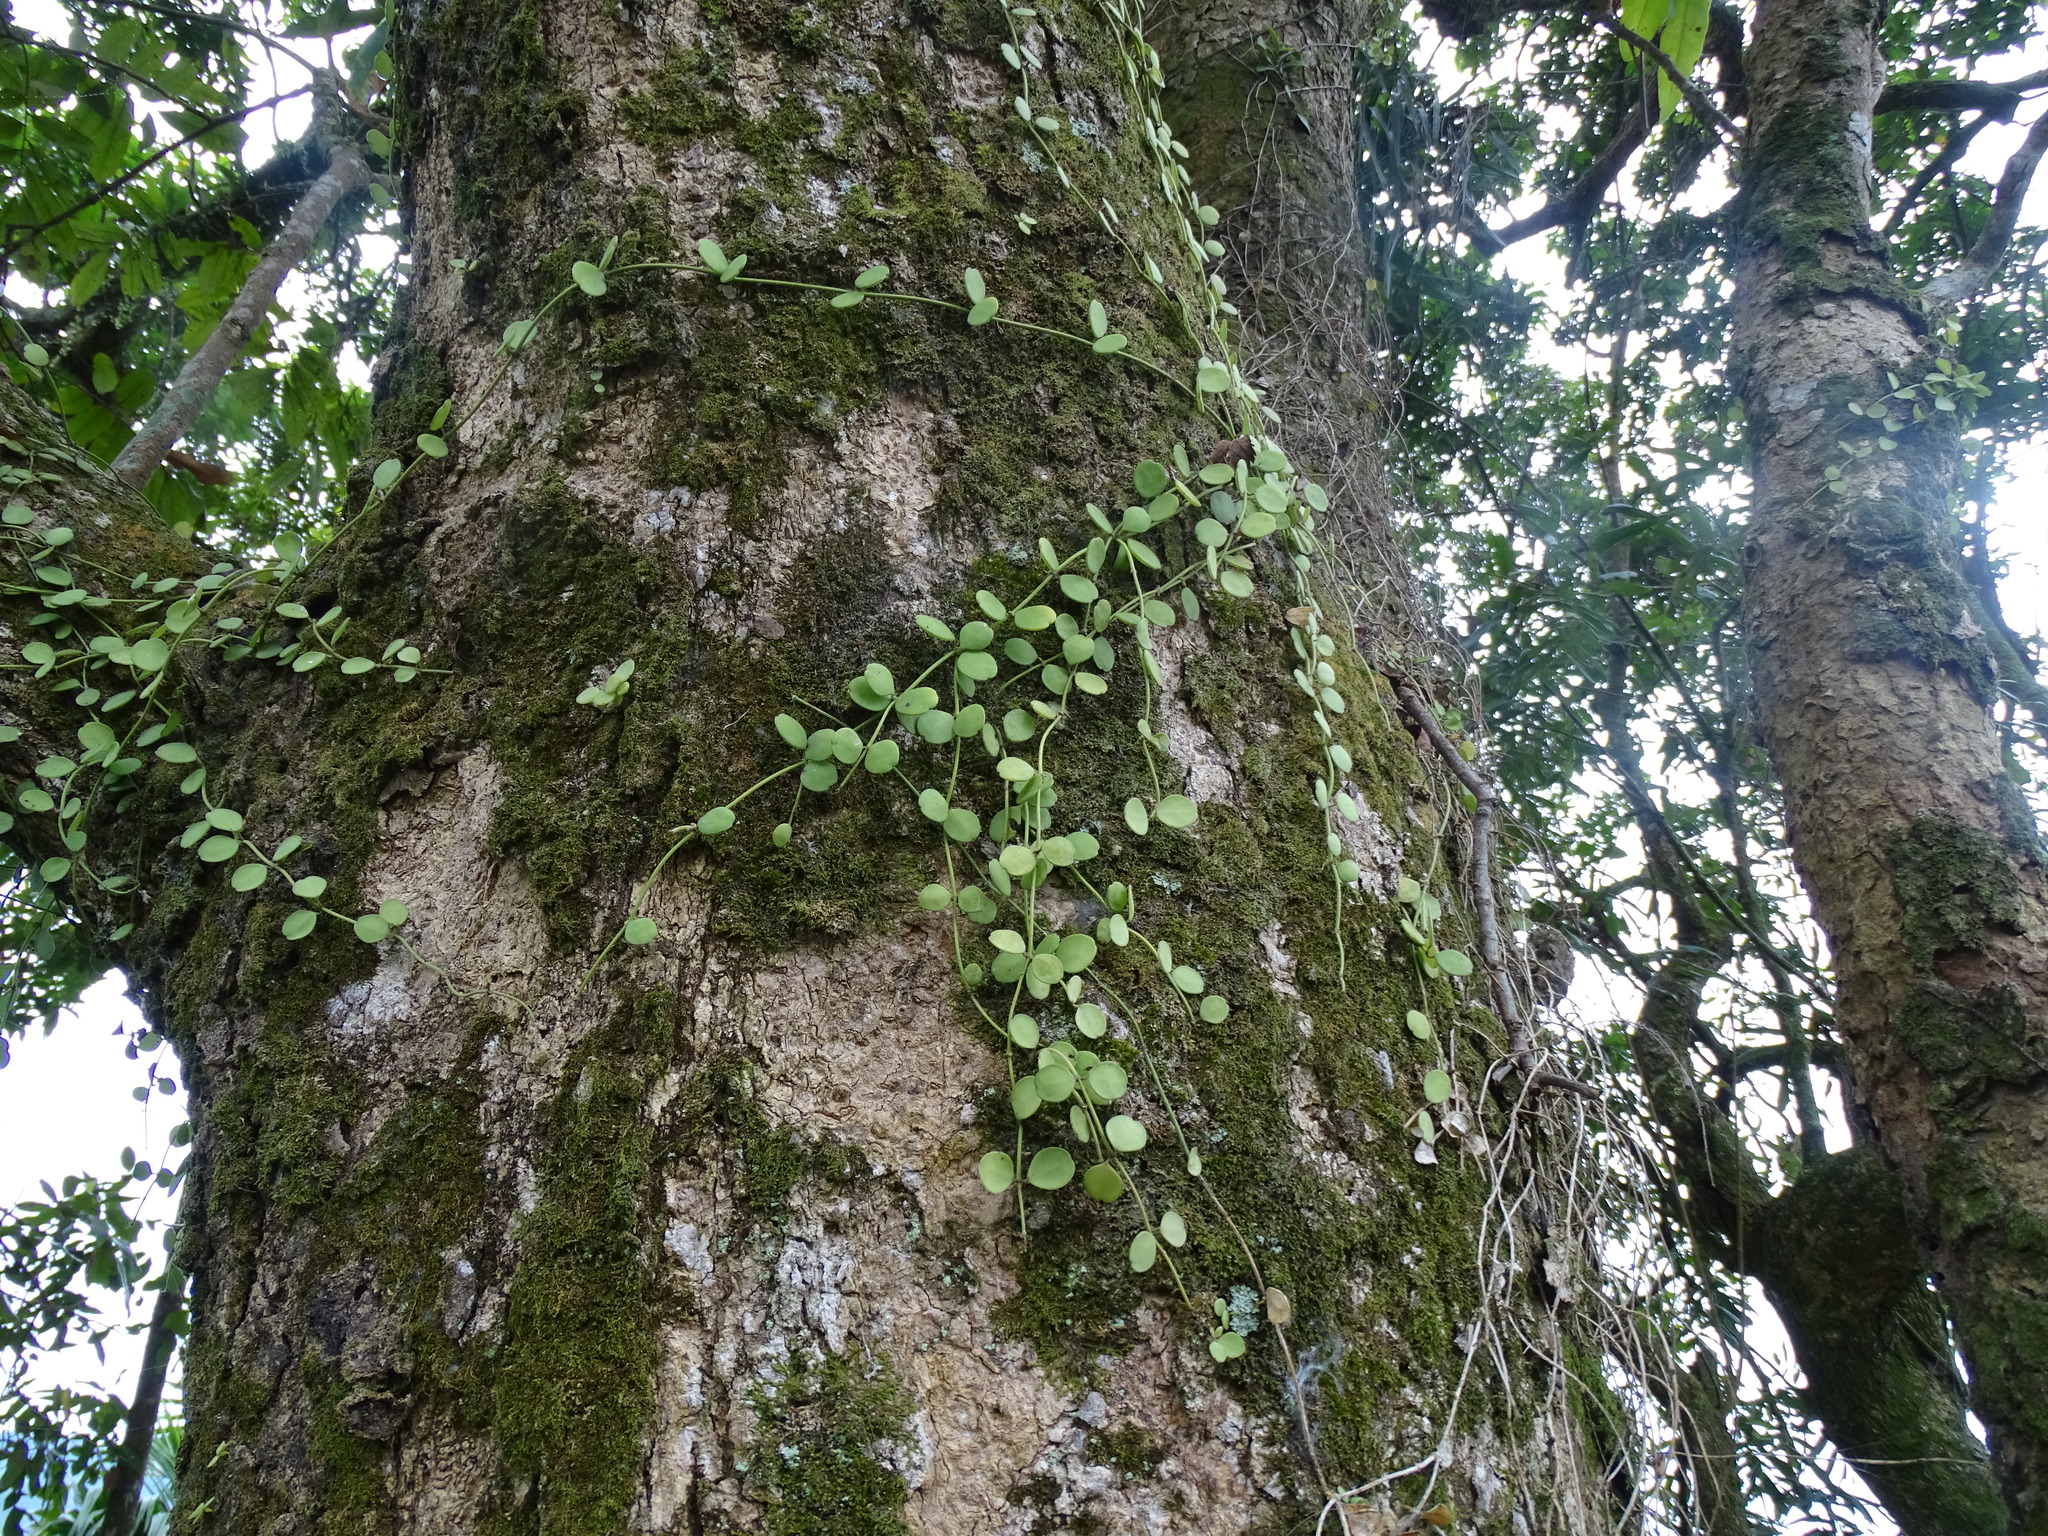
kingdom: Plantae
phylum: Tracheophyta
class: Magnoliopsida
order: Gentianales
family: Apocynaceae
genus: Dischidia
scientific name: Dischidia formosana
